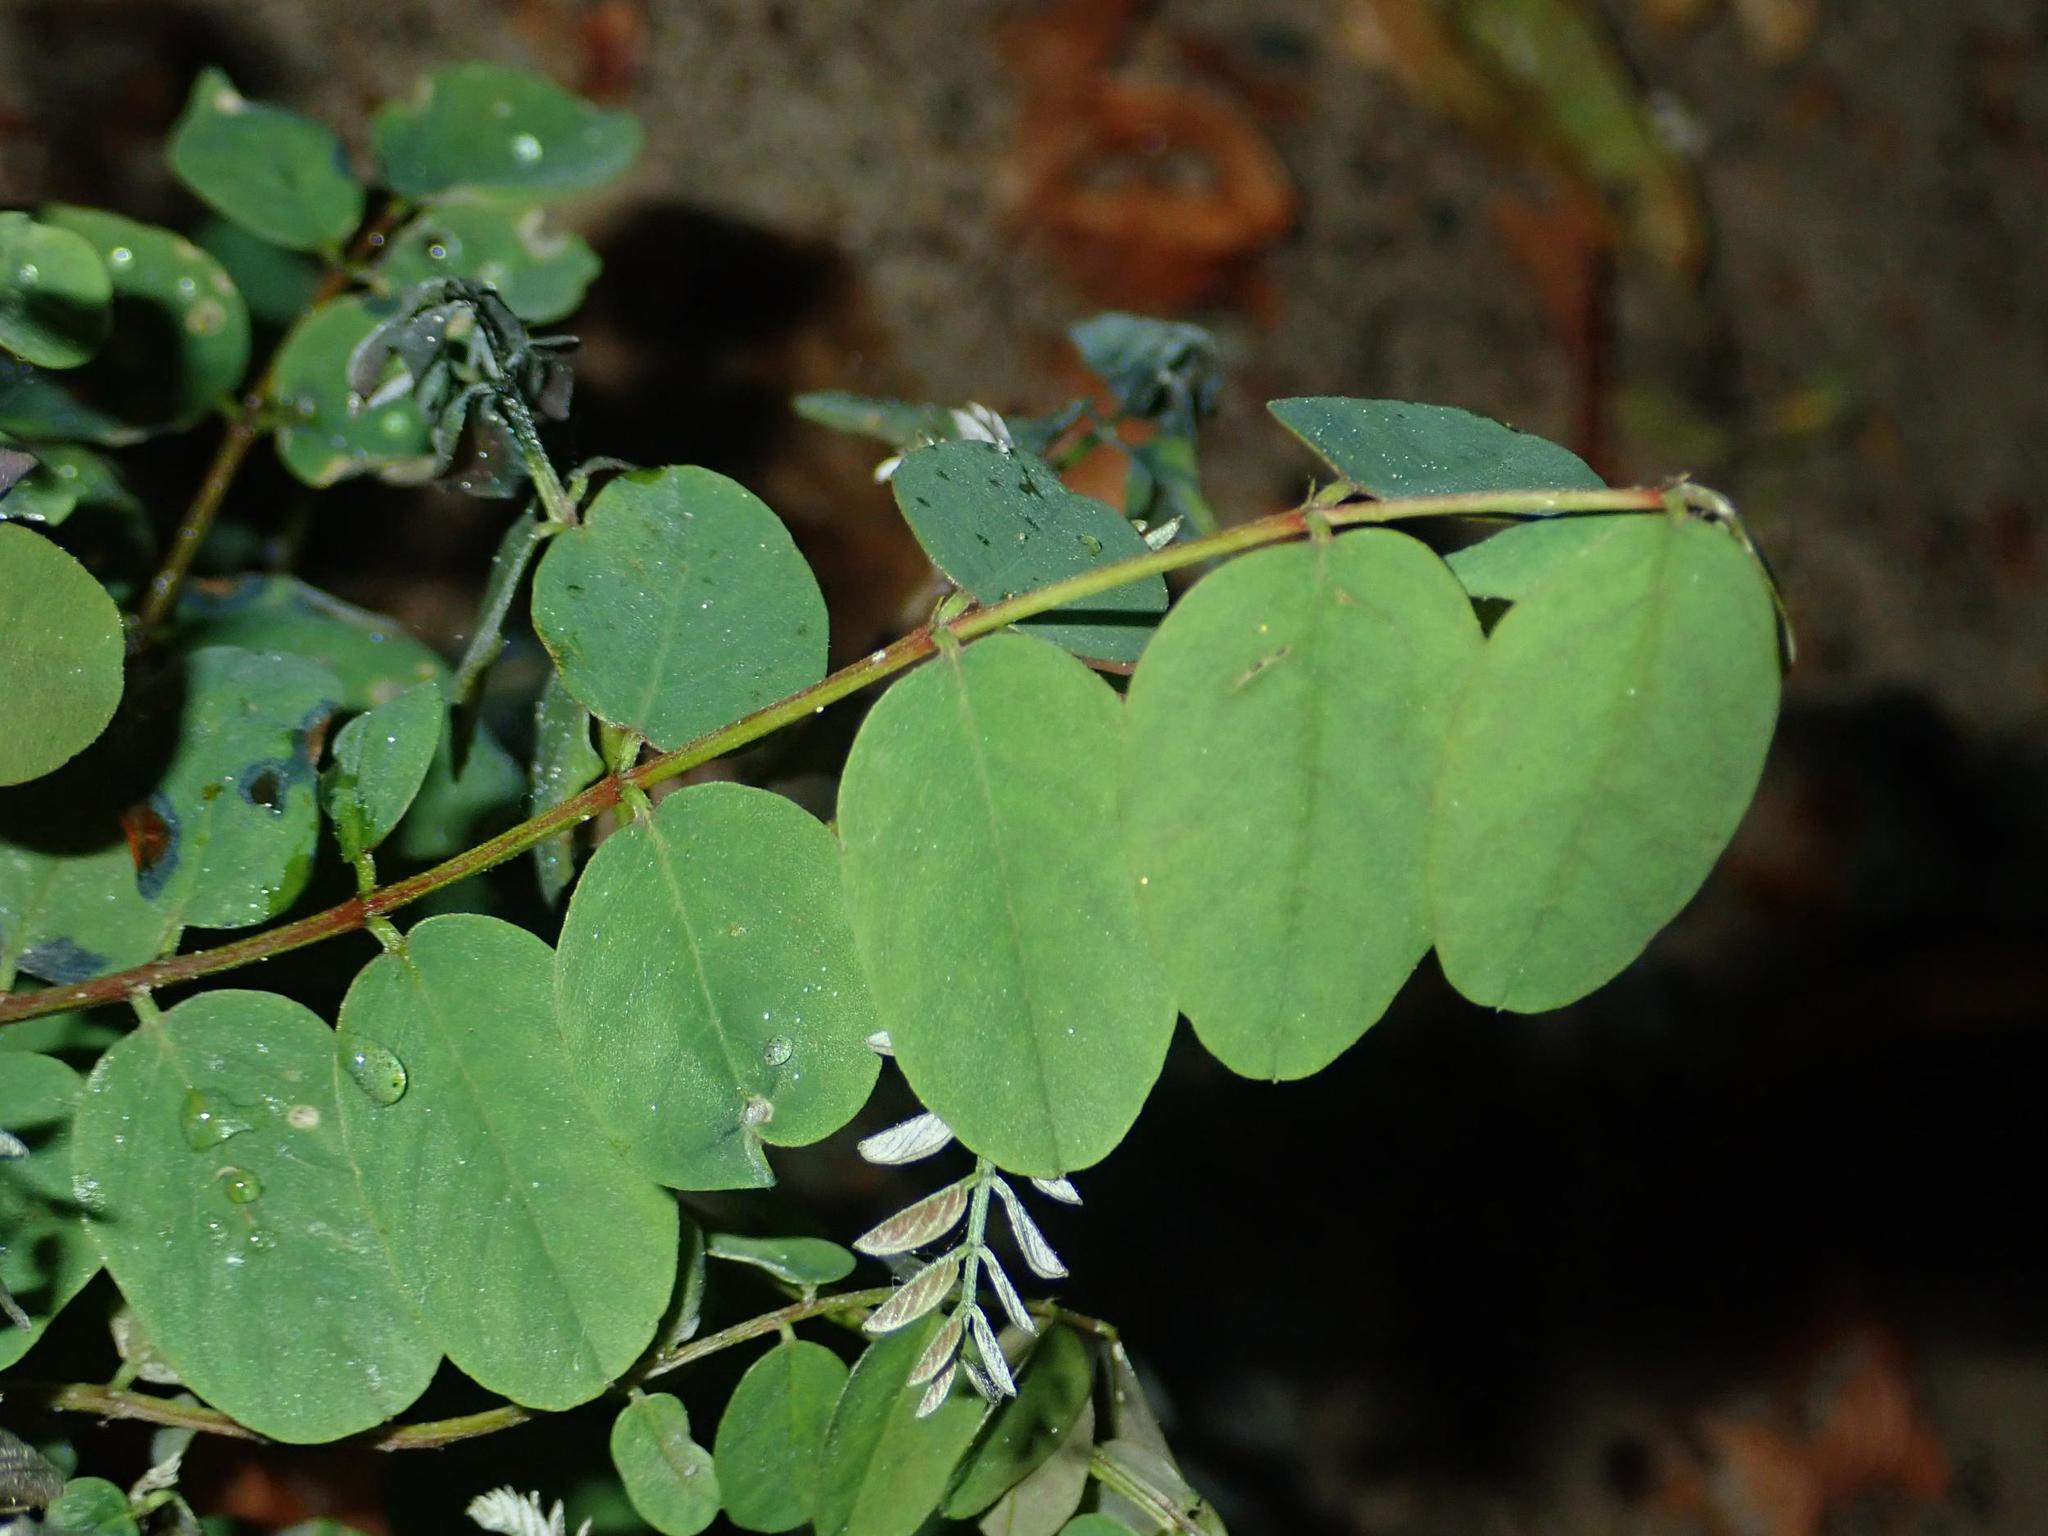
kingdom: Plantae
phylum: Tracheophyta
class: Magnoliopsida
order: Fabales
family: Fabaceae
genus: Robinia
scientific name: Robinia pseudoacacia
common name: Black locust
